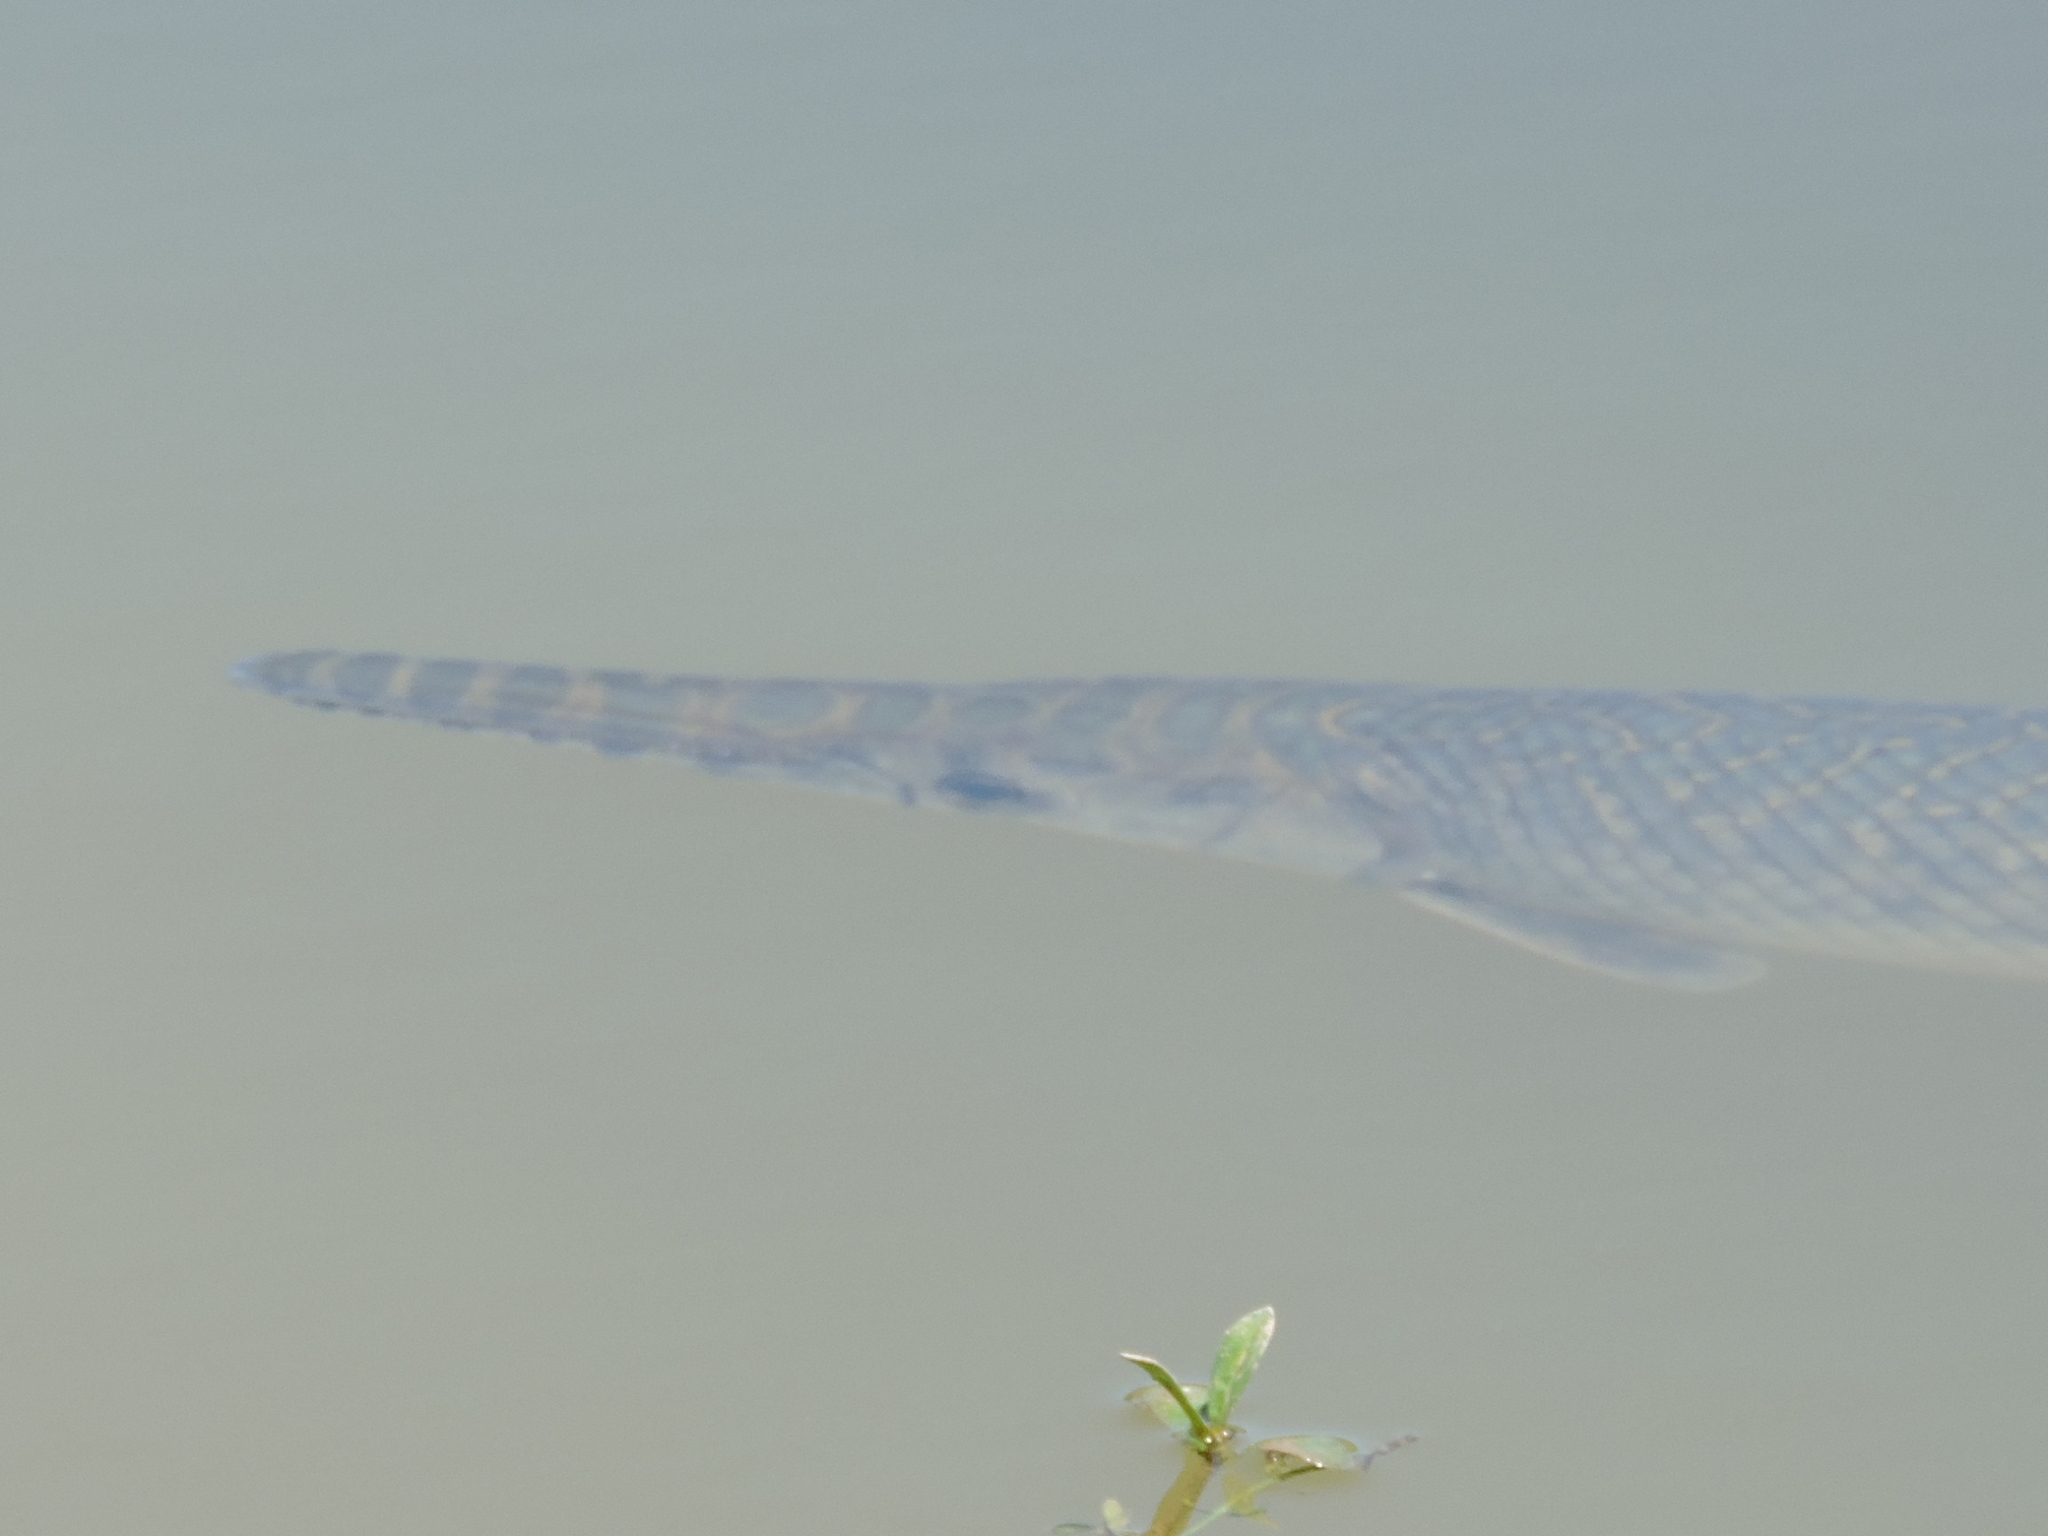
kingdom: Animalia
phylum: Chordata
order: Lepisosteiformes
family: Lepisosteidae
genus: Lepisosteus
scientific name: Lepisosteus oculatus
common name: Spotted gar
